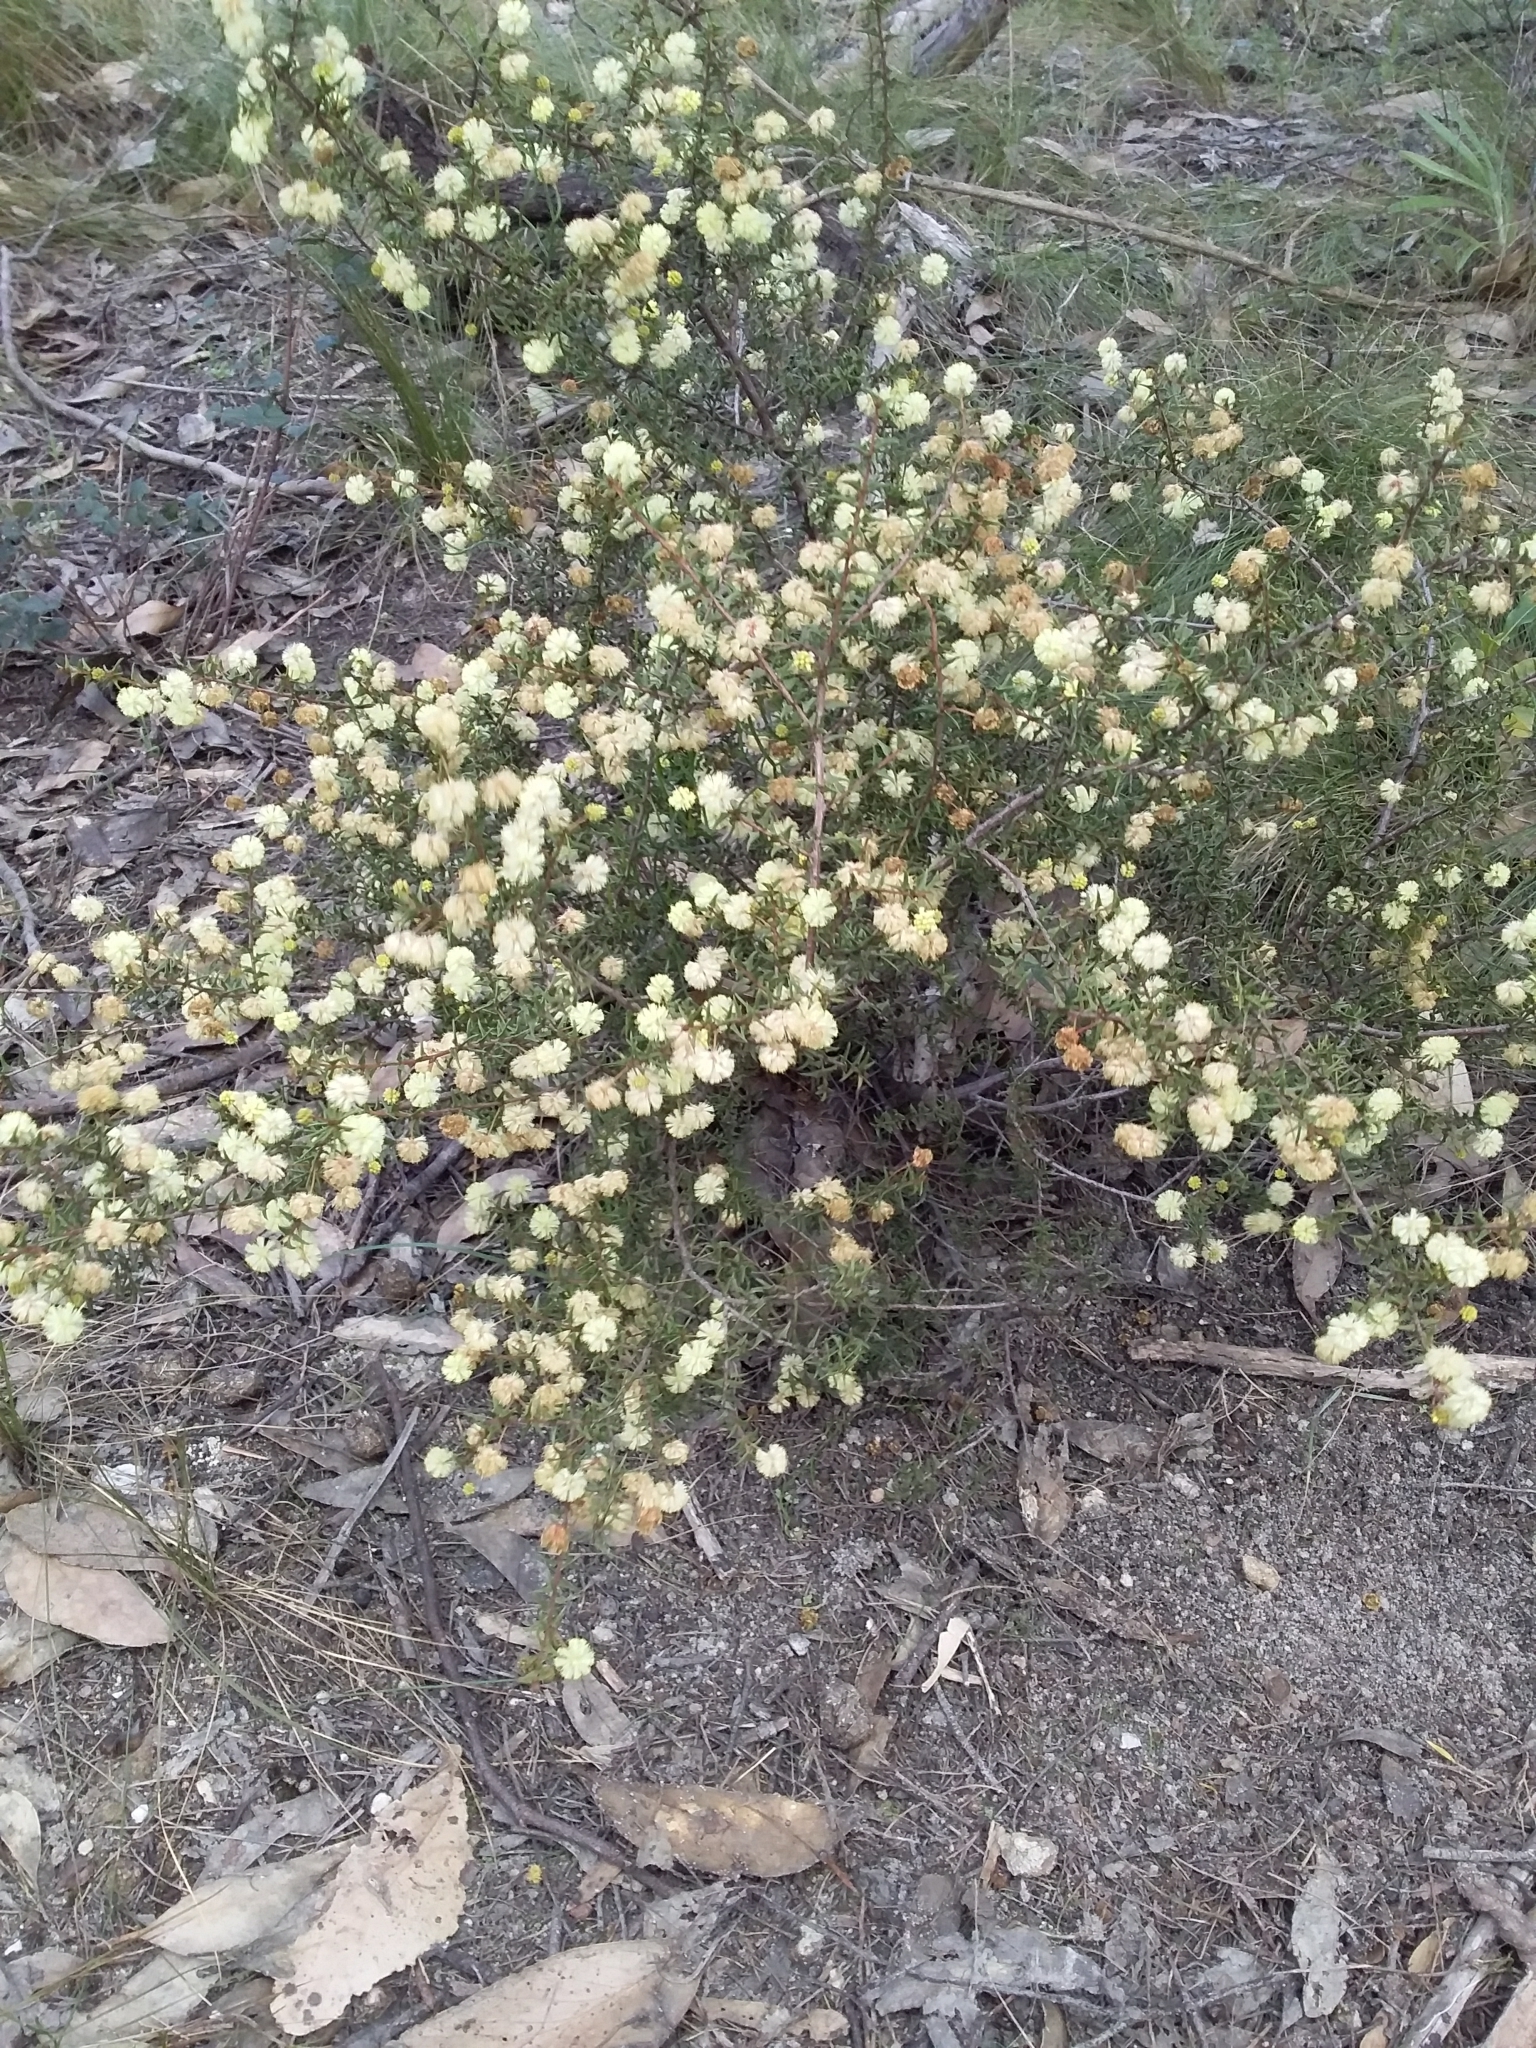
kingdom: Plantae
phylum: Tracheophyta
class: Magnoliopsida
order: Fabales
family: Fabaceae
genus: Acacia
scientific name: Acacia gunnii
